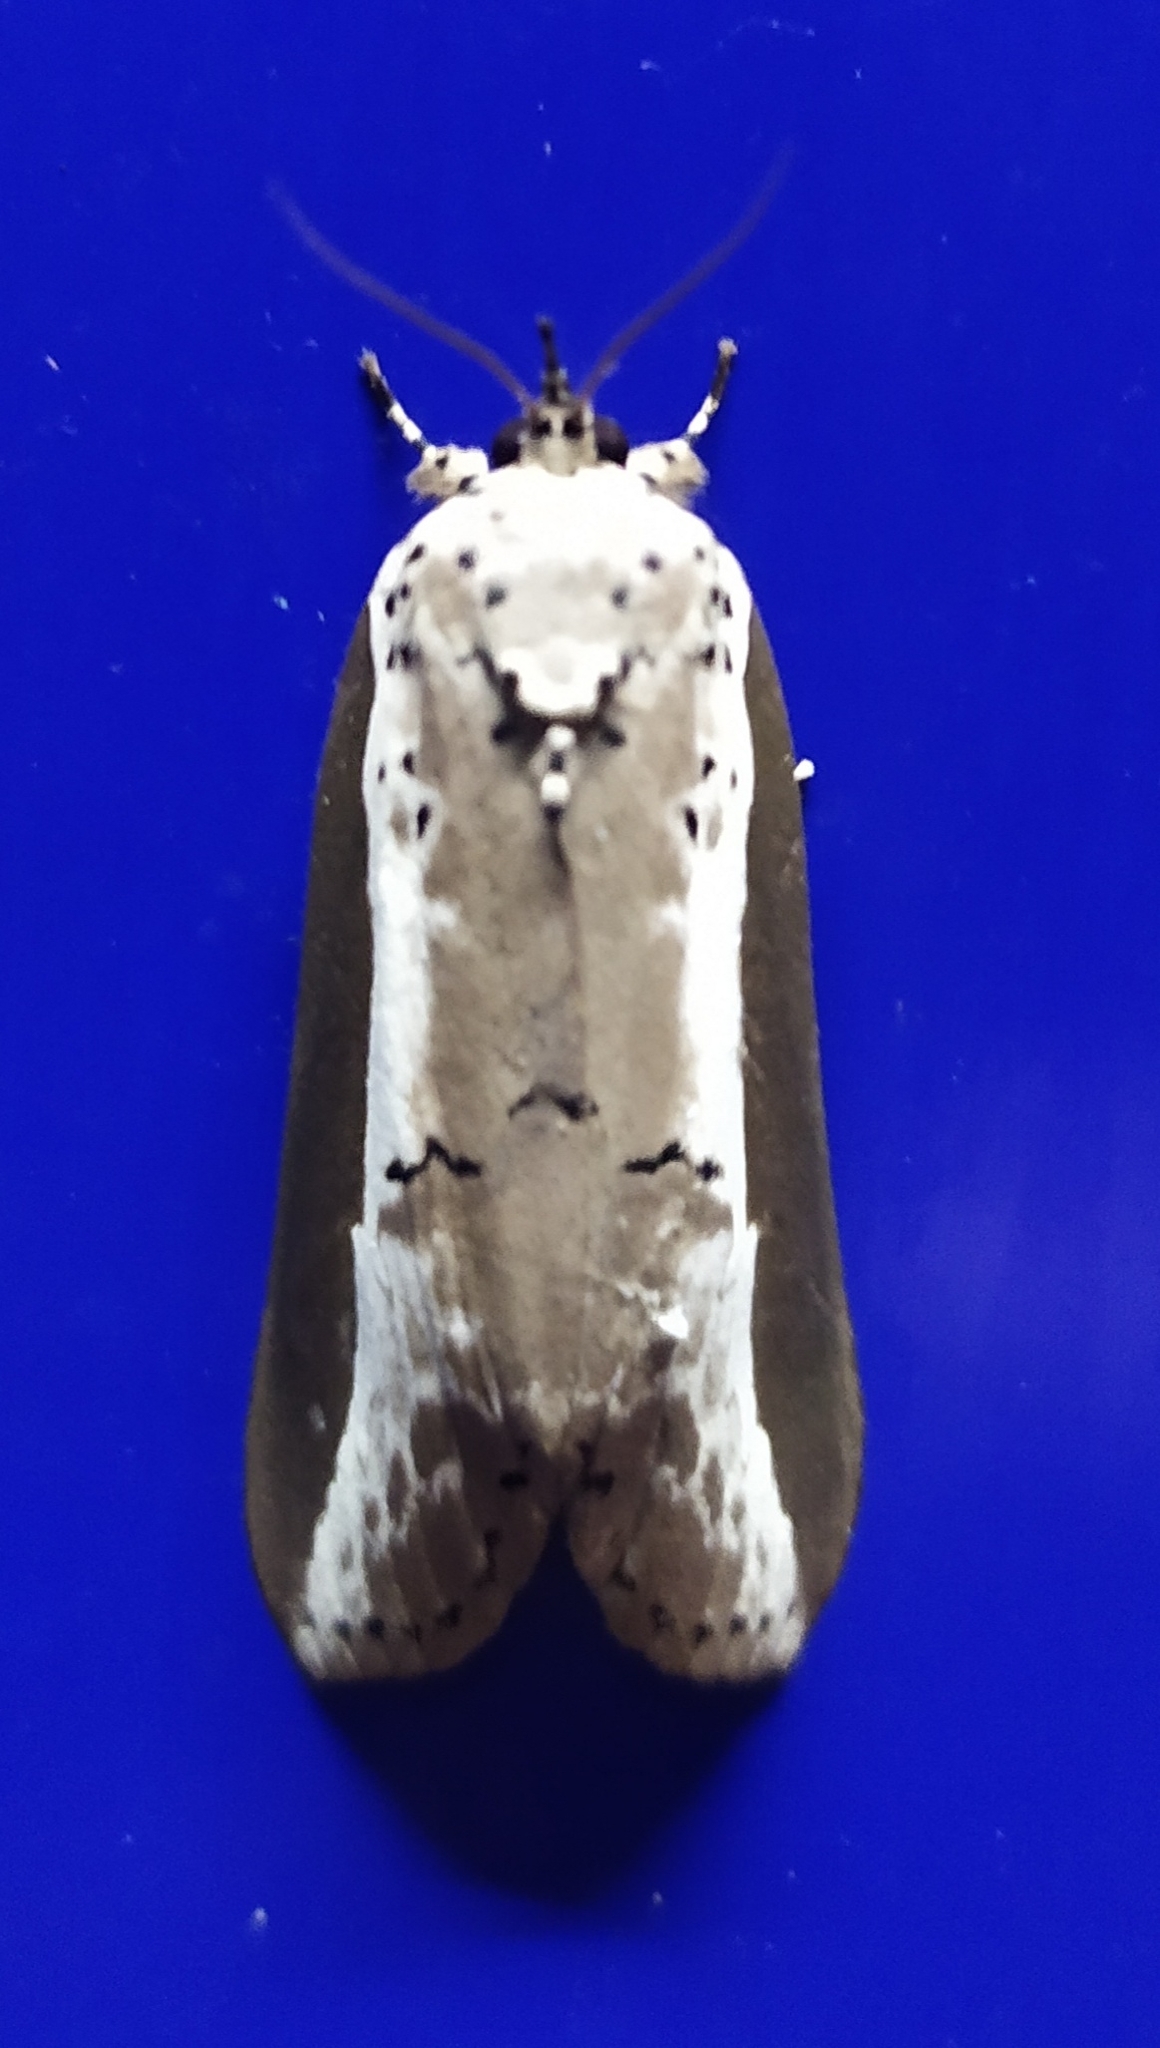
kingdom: Animalia
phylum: Arthropoda
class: Insecta
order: Lepidoptera
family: Nolidae
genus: Eligma
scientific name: Eligma narcissus
